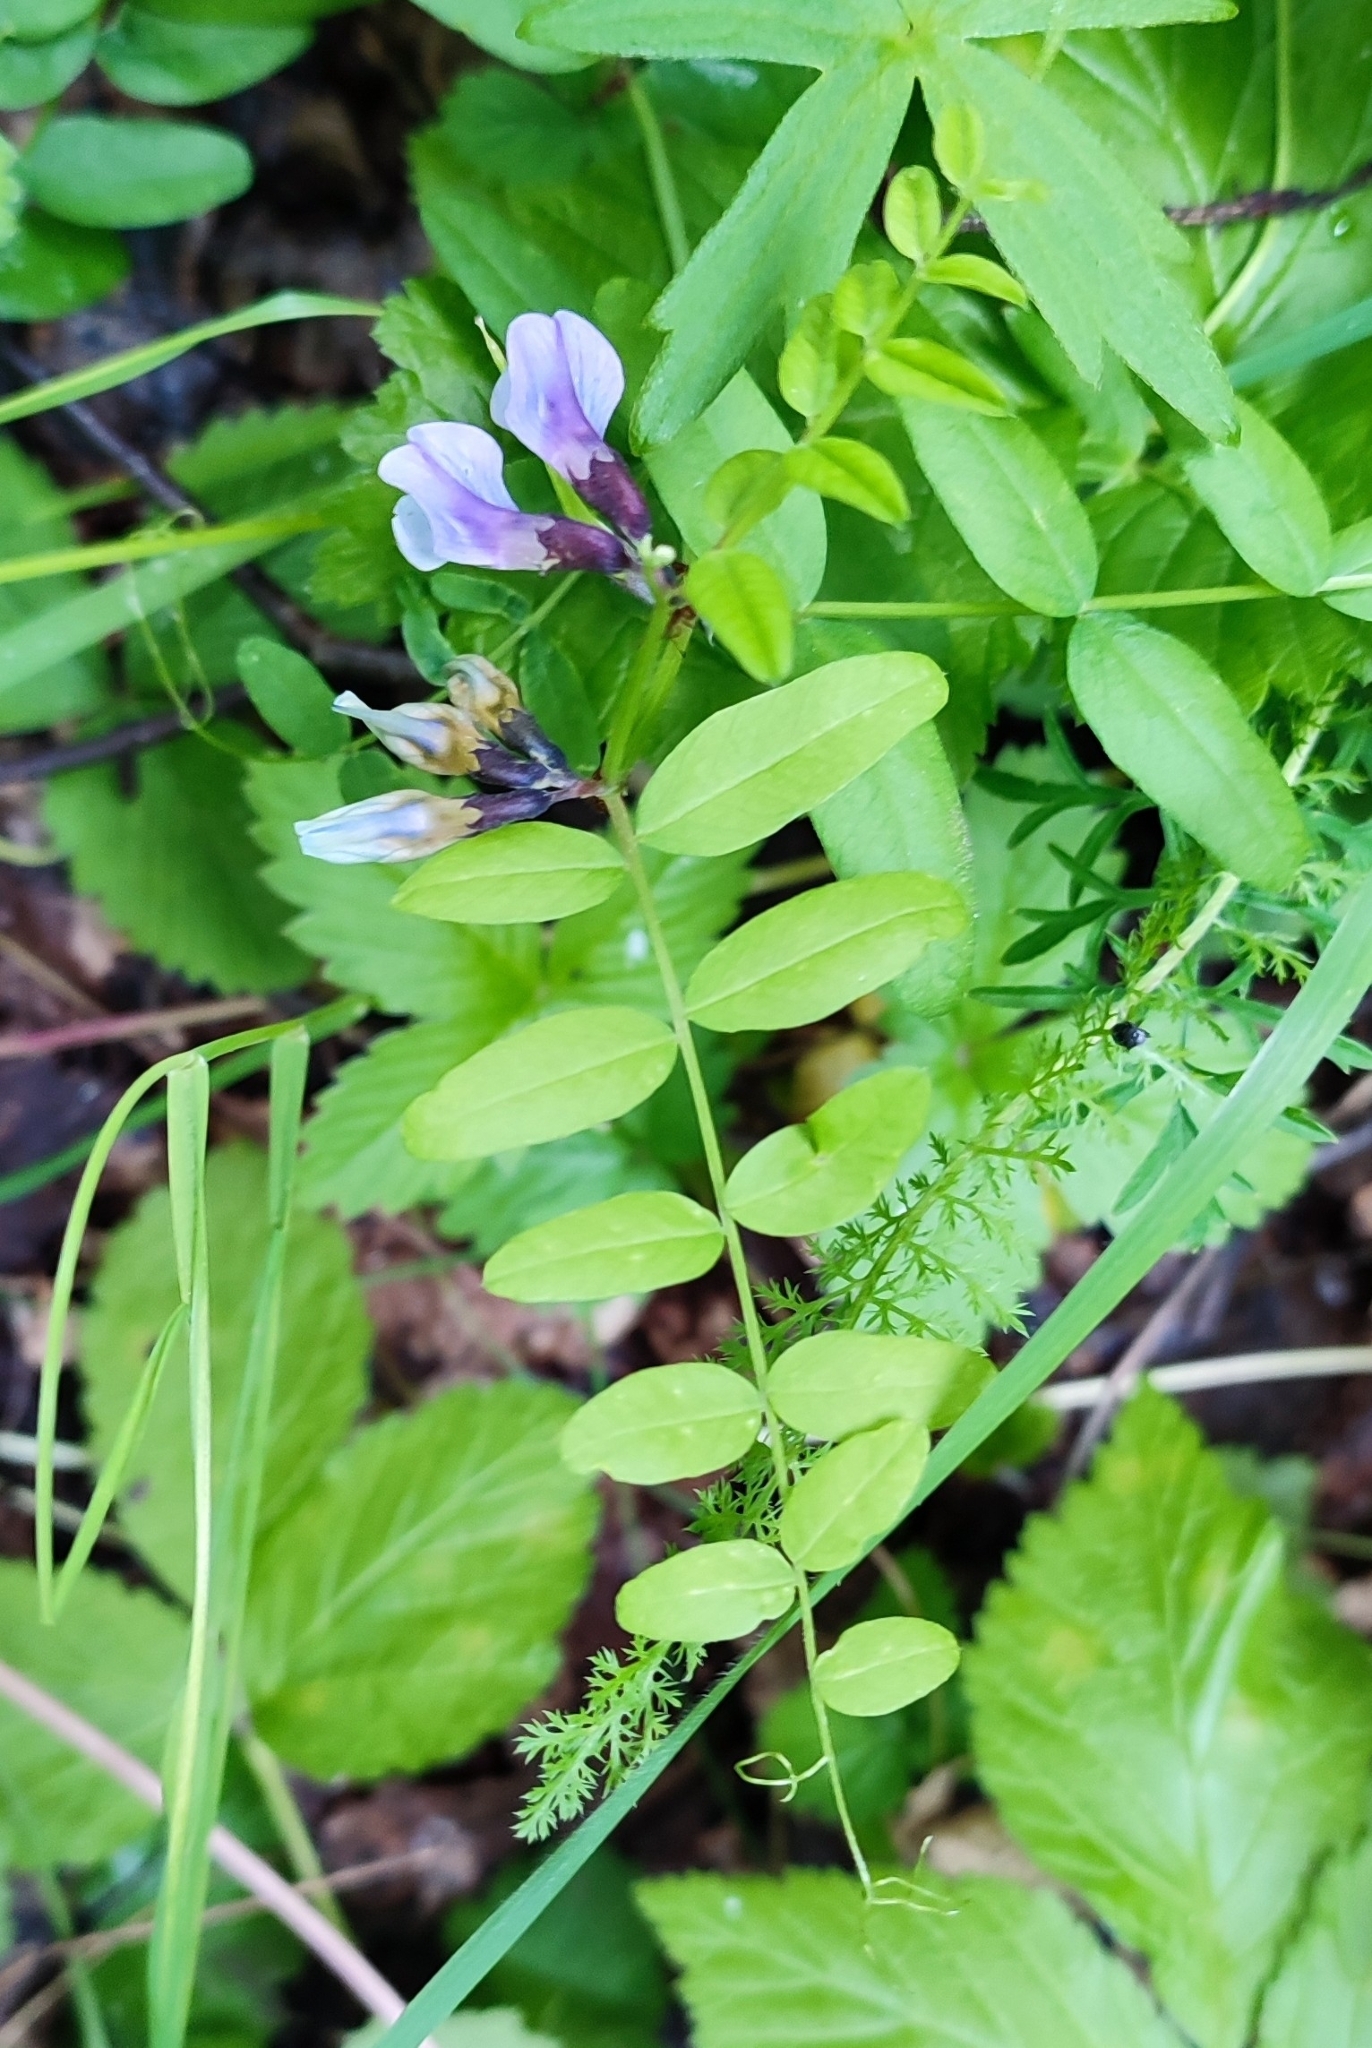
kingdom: Plantae
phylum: Tracheophyta
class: Magnoliopsida
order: Fabales
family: Fabaceae
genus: Vicia
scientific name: Vicia sepium
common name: Bush vetch
